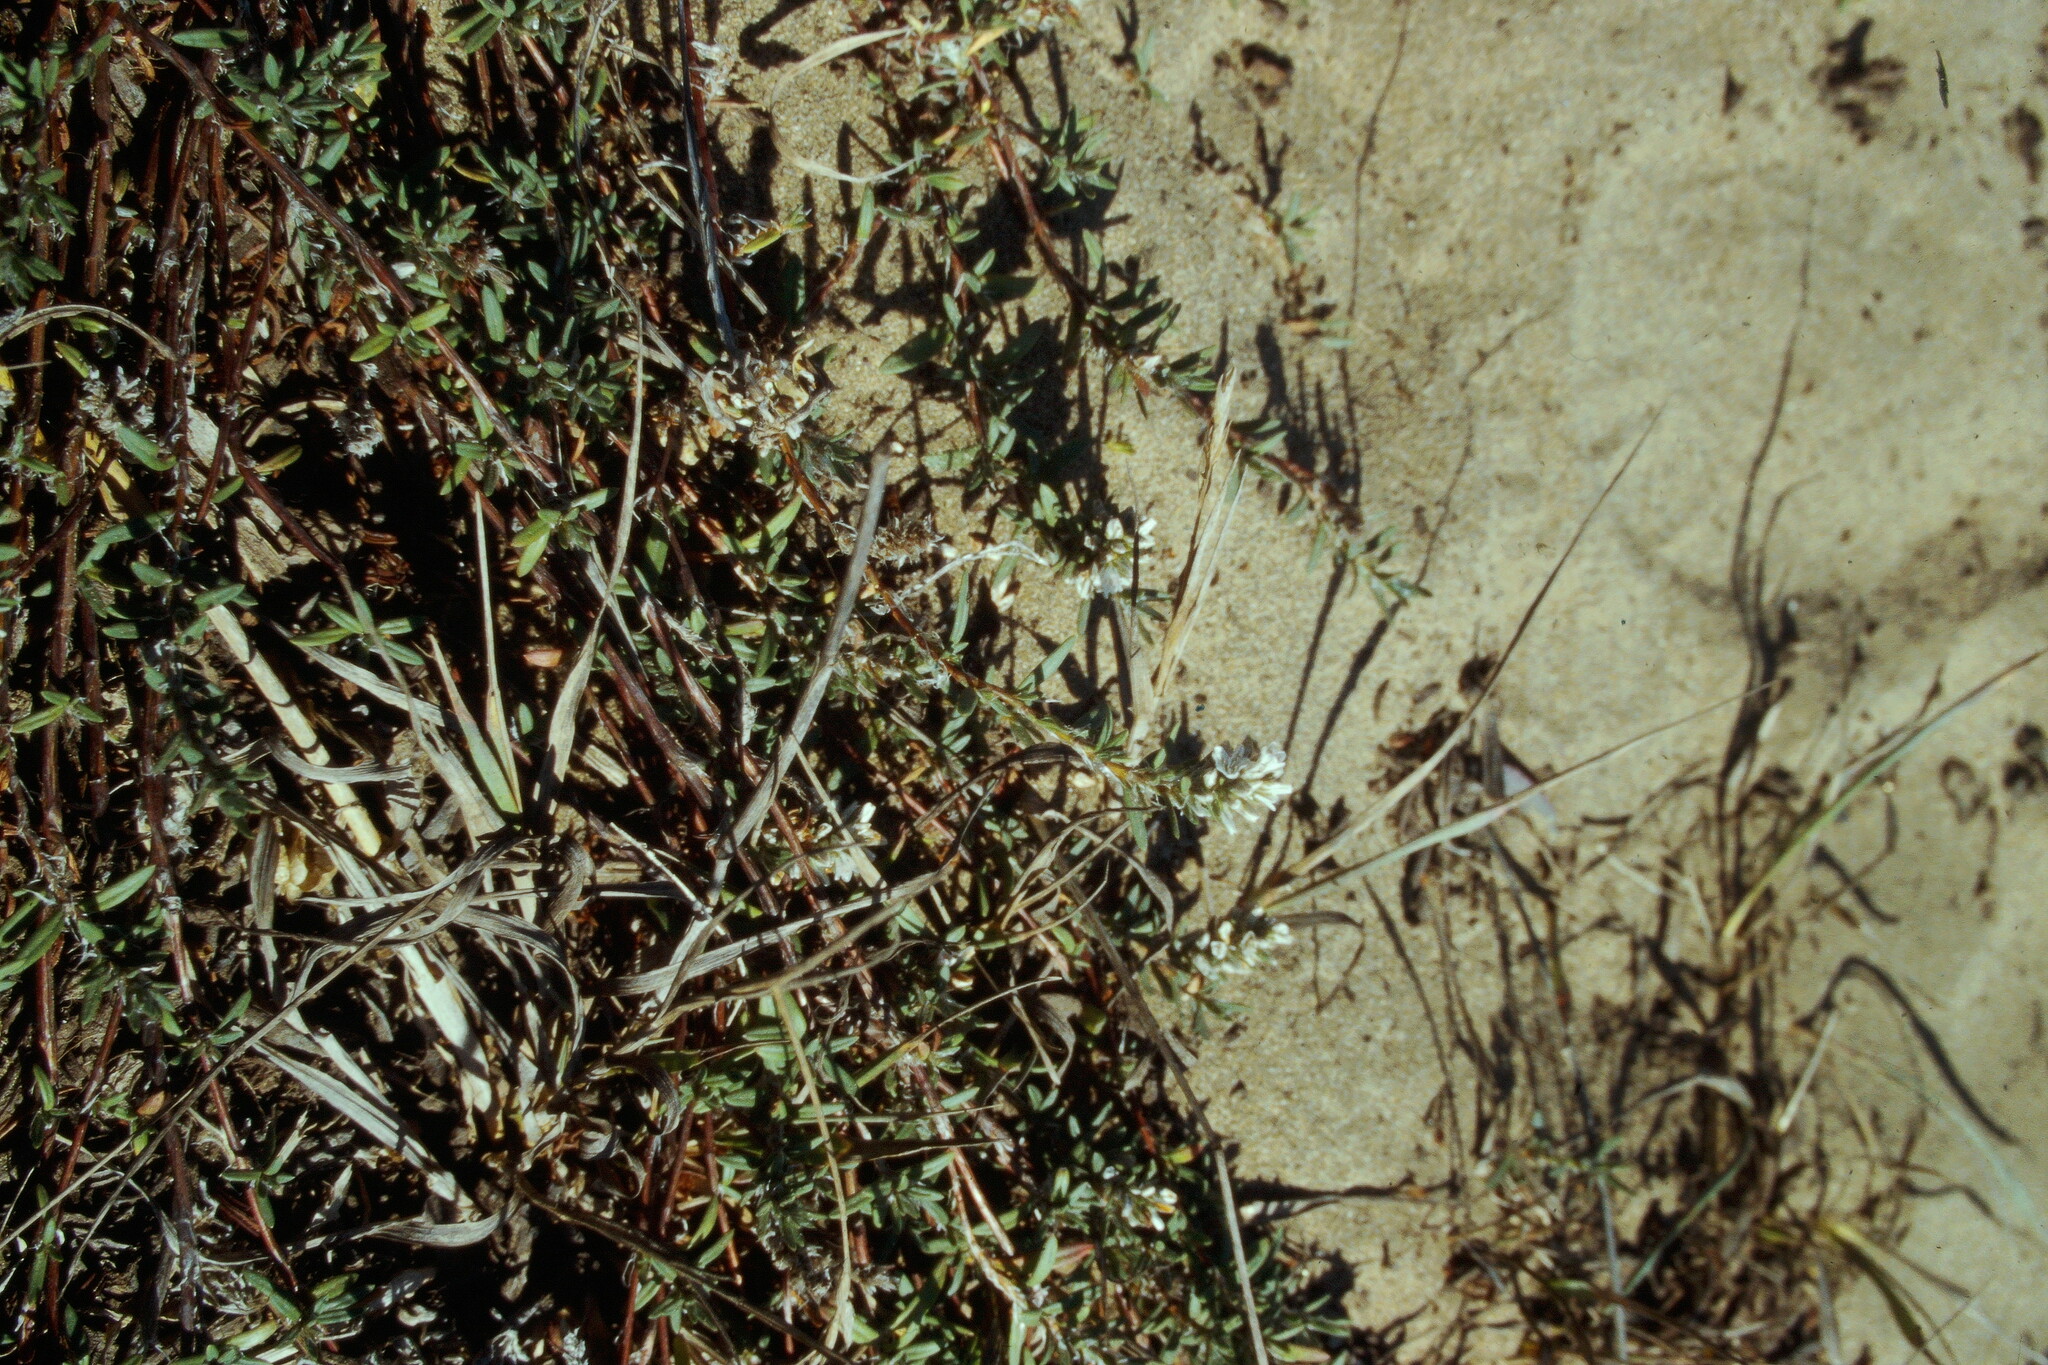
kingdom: Plantae
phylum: Tracheophyta
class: Magnoliopsida
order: Caryophyllales
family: Polygonaceae
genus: Polygonum
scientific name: Polygonum paronychia
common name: Dune knotweed
